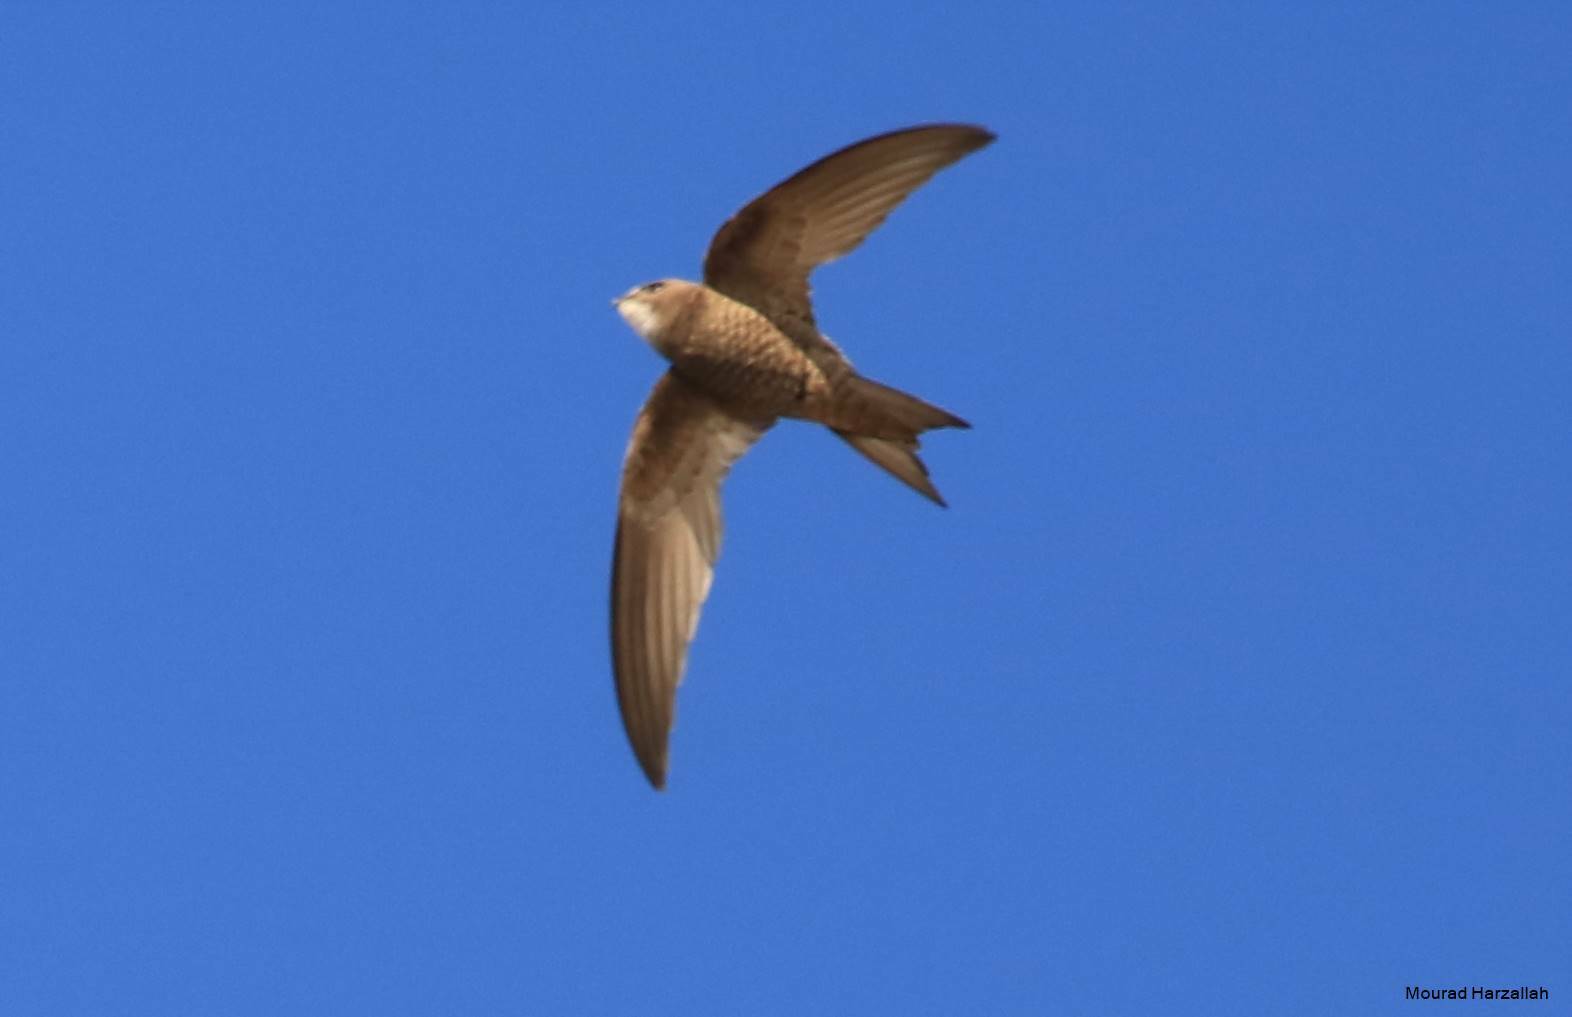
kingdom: Animalia
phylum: Chordata
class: Aves
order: Apodiformes
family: Apodidae
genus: Apus
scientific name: Apus pallidus
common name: Pallid swift
